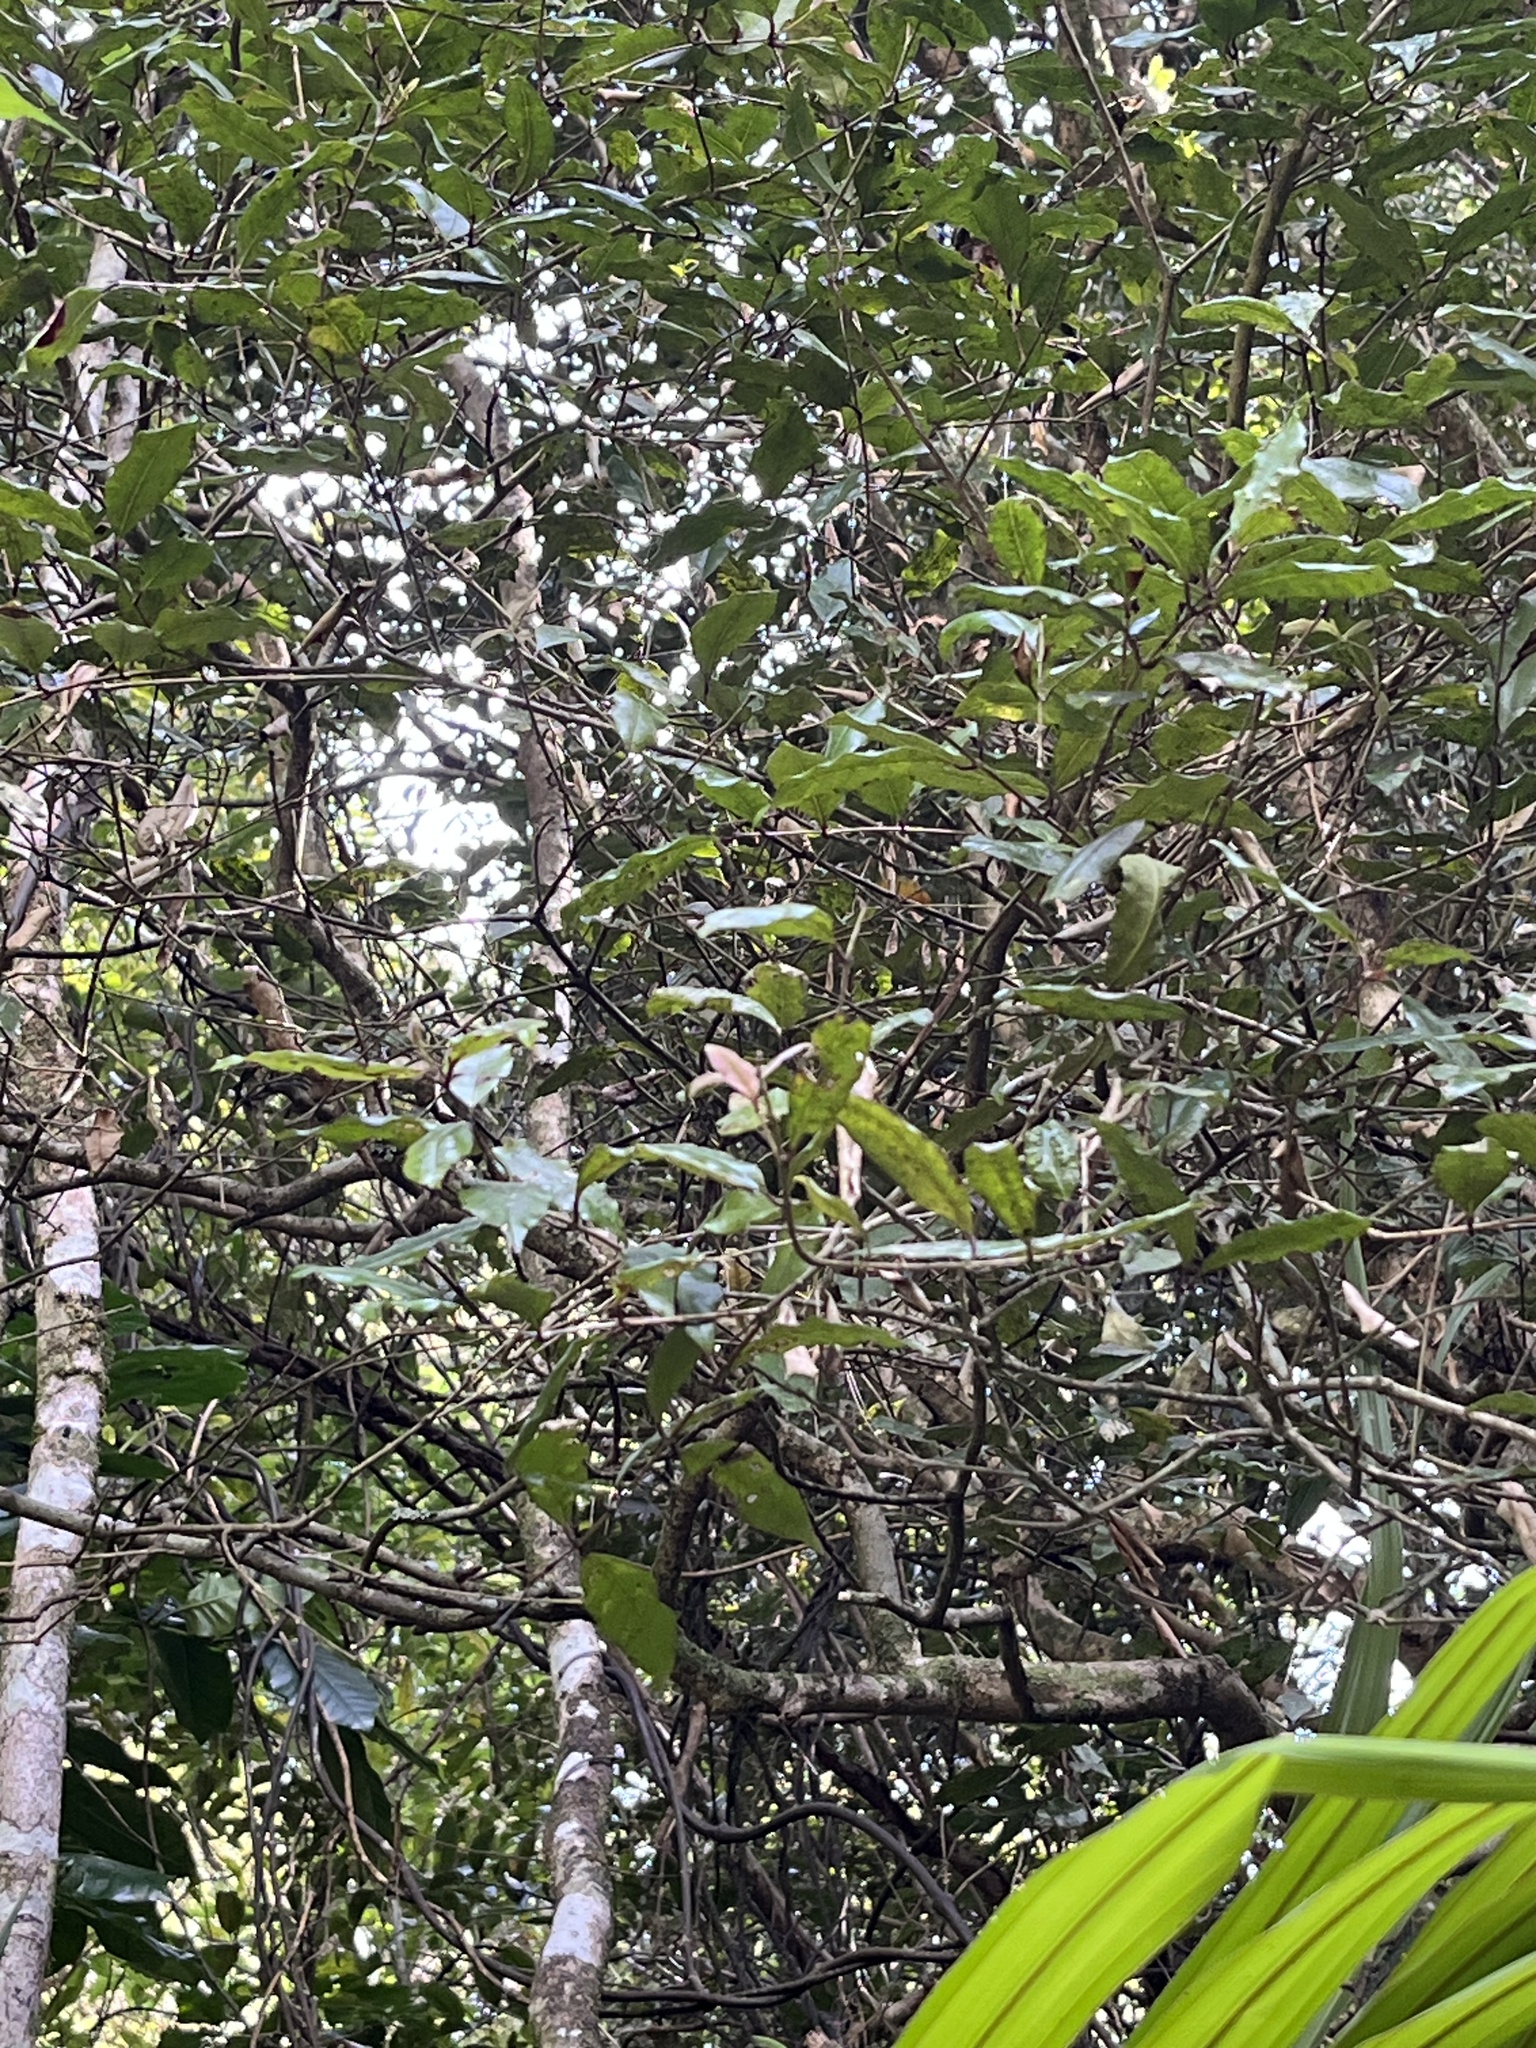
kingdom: Plantae
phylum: Tracheophyta
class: Magnoliopsida
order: Myrtales
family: Myrtaceae
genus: Syzygium
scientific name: Syzygium maire
